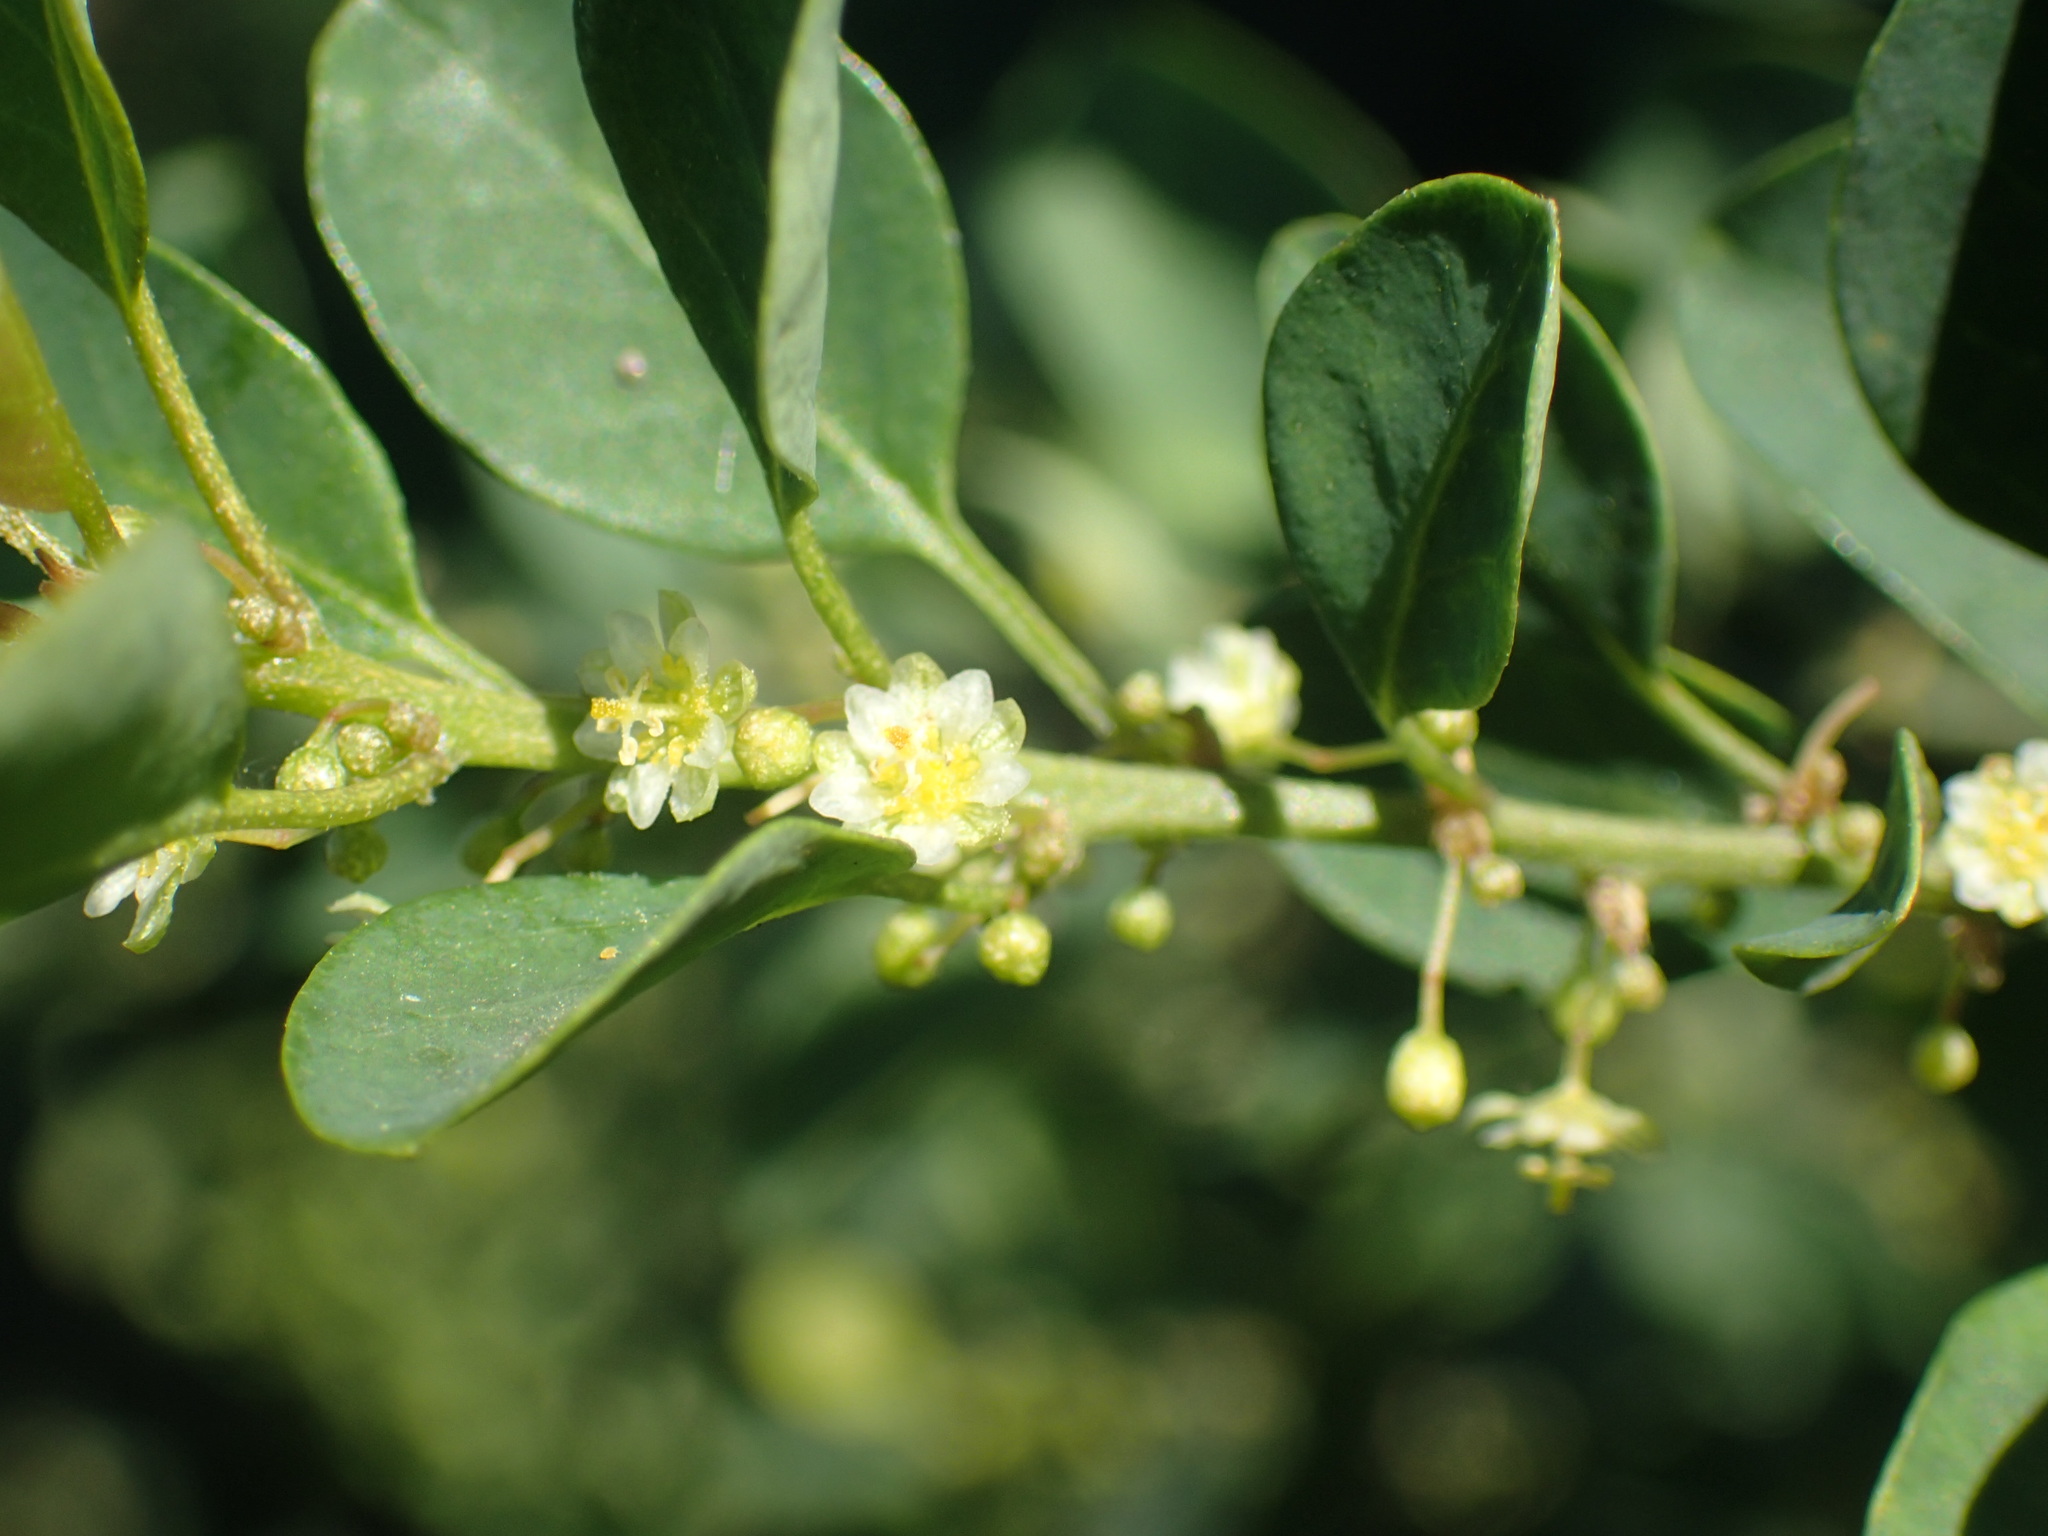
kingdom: Plantae
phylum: Tracheophyta
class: Magnoliopsida
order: Malpighiales
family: Peraceae
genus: Clutia
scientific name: Clutia pulchella
